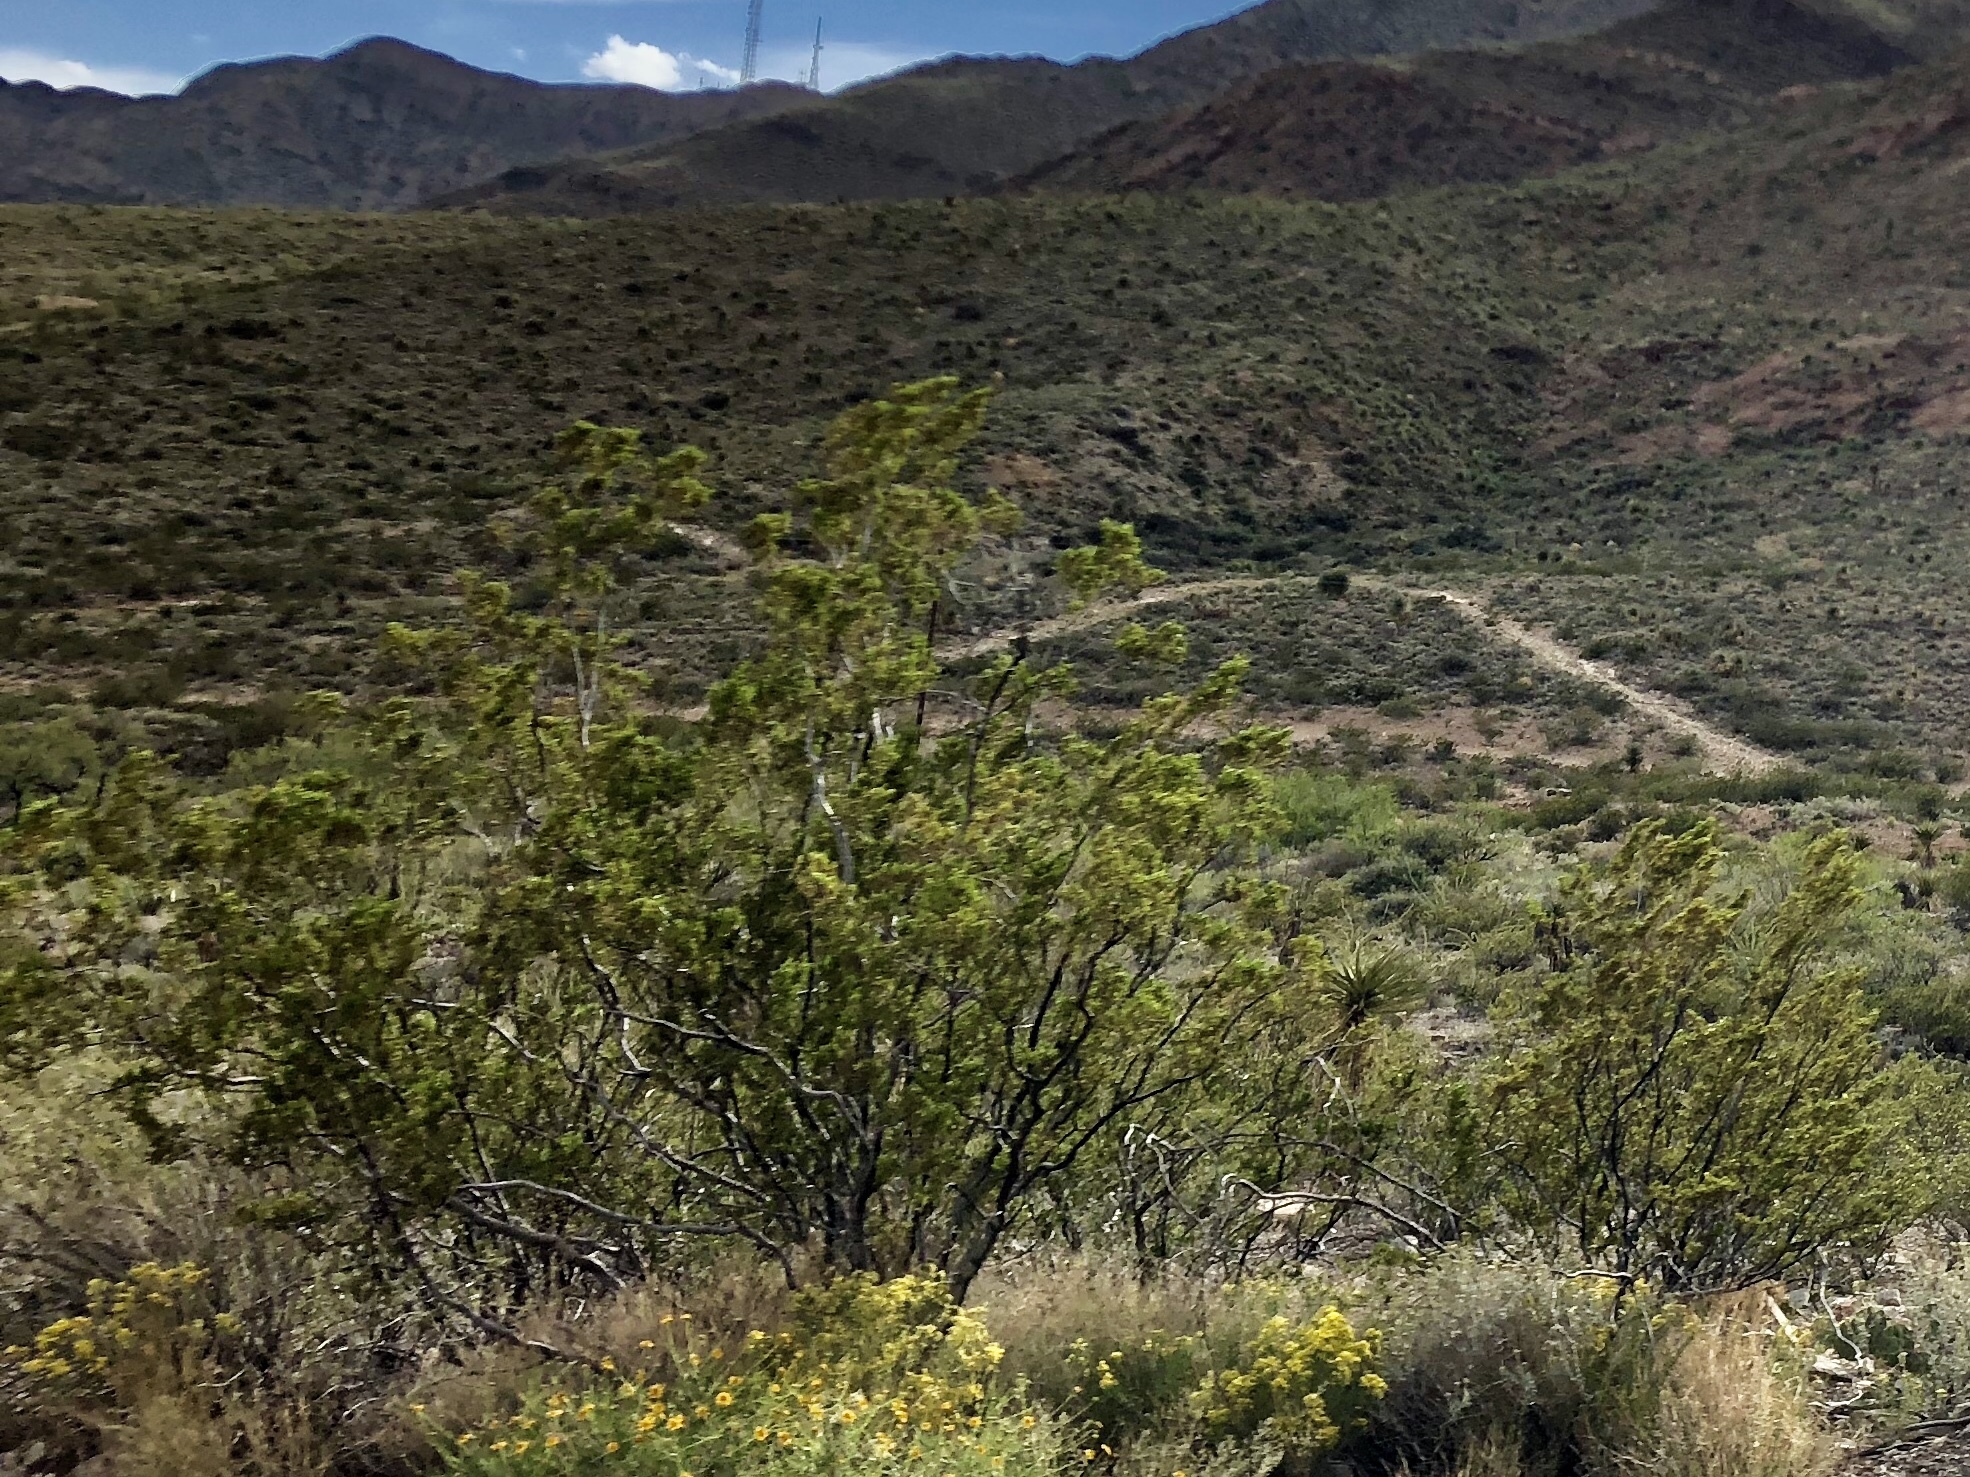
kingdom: Plantae
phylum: Tracheophyta
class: Magnoliopsida
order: Zygophyllales
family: Zygophyllaceae
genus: Larrea
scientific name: Larrea tridentata
